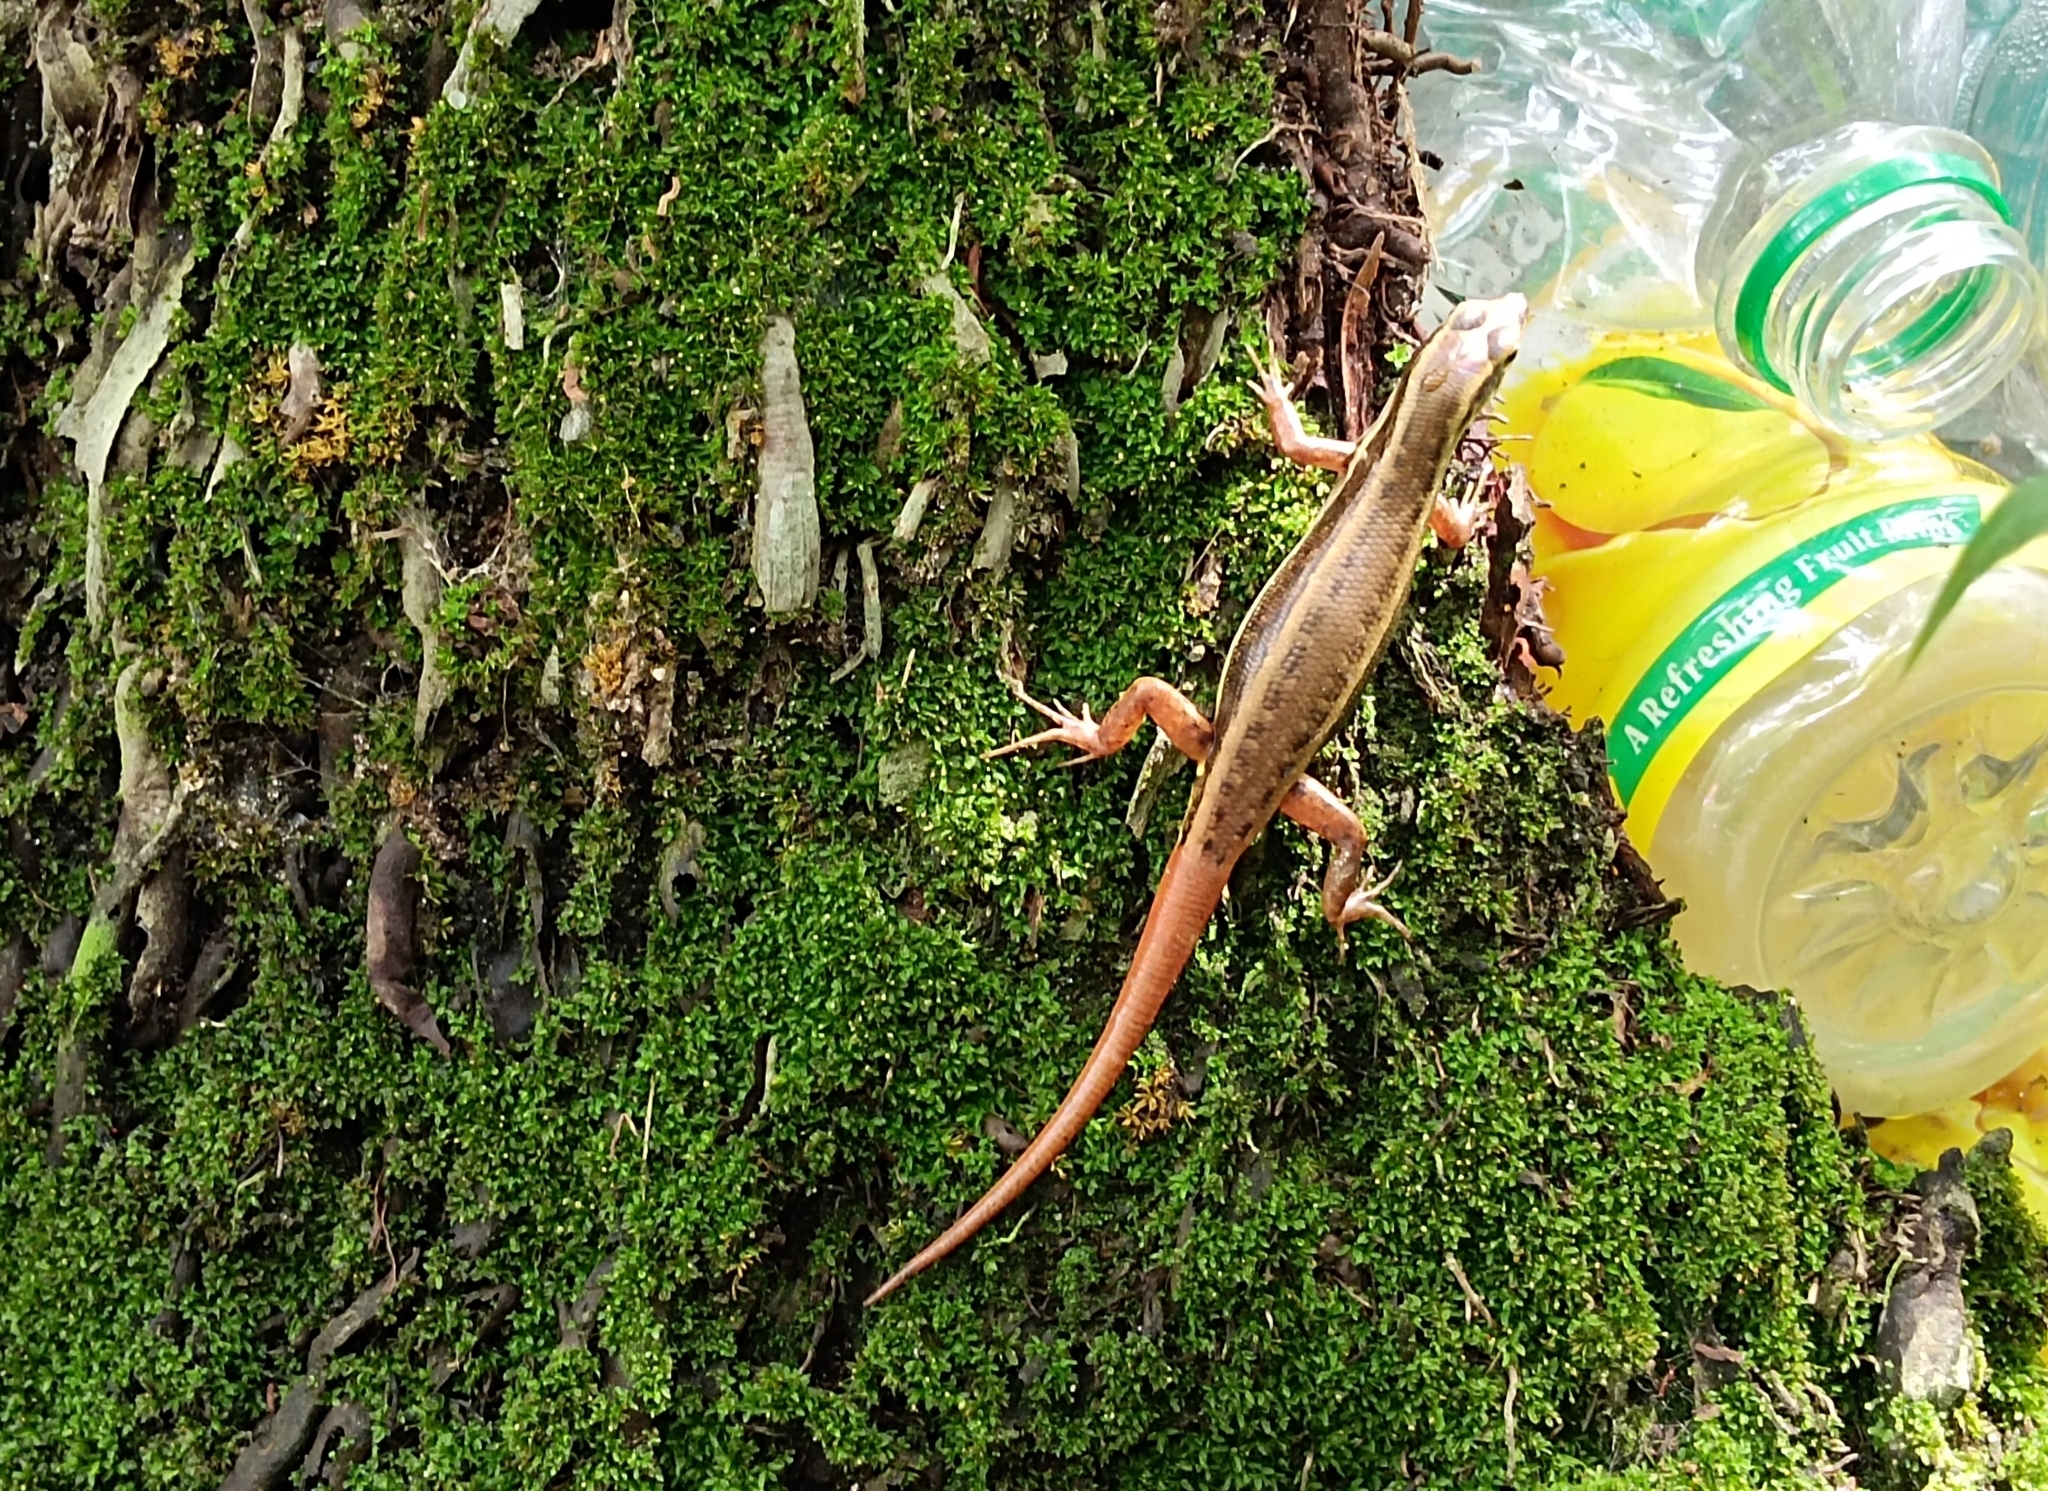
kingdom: Animalia
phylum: Chordata
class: Squamata
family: Scincidae
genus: Sphenomorphus
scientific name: Sphenomorphus dussumieri
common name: Dussumier's forest skink
